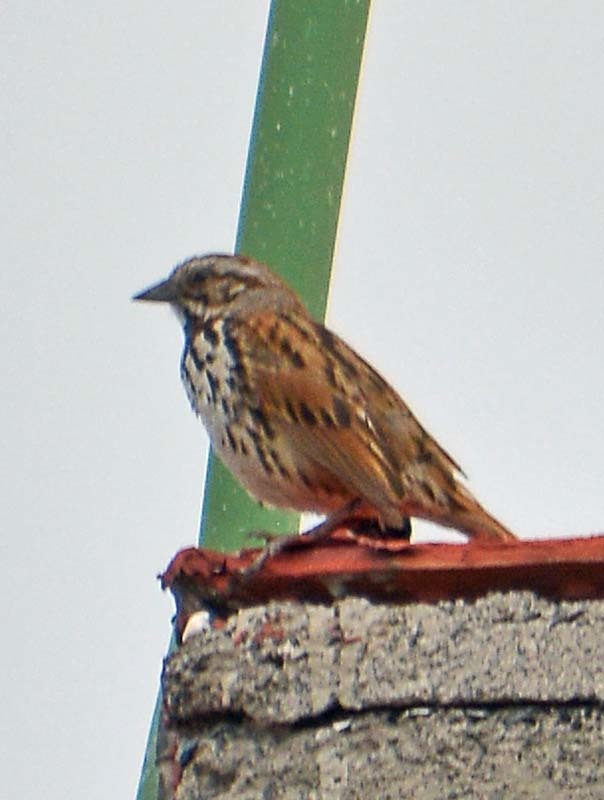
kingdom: Animalia
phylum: Chordata
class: Aves
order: Passeriformes
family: Passerellidae
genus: Melospiza
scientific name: Melospiza melodia
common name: Song sparrow
